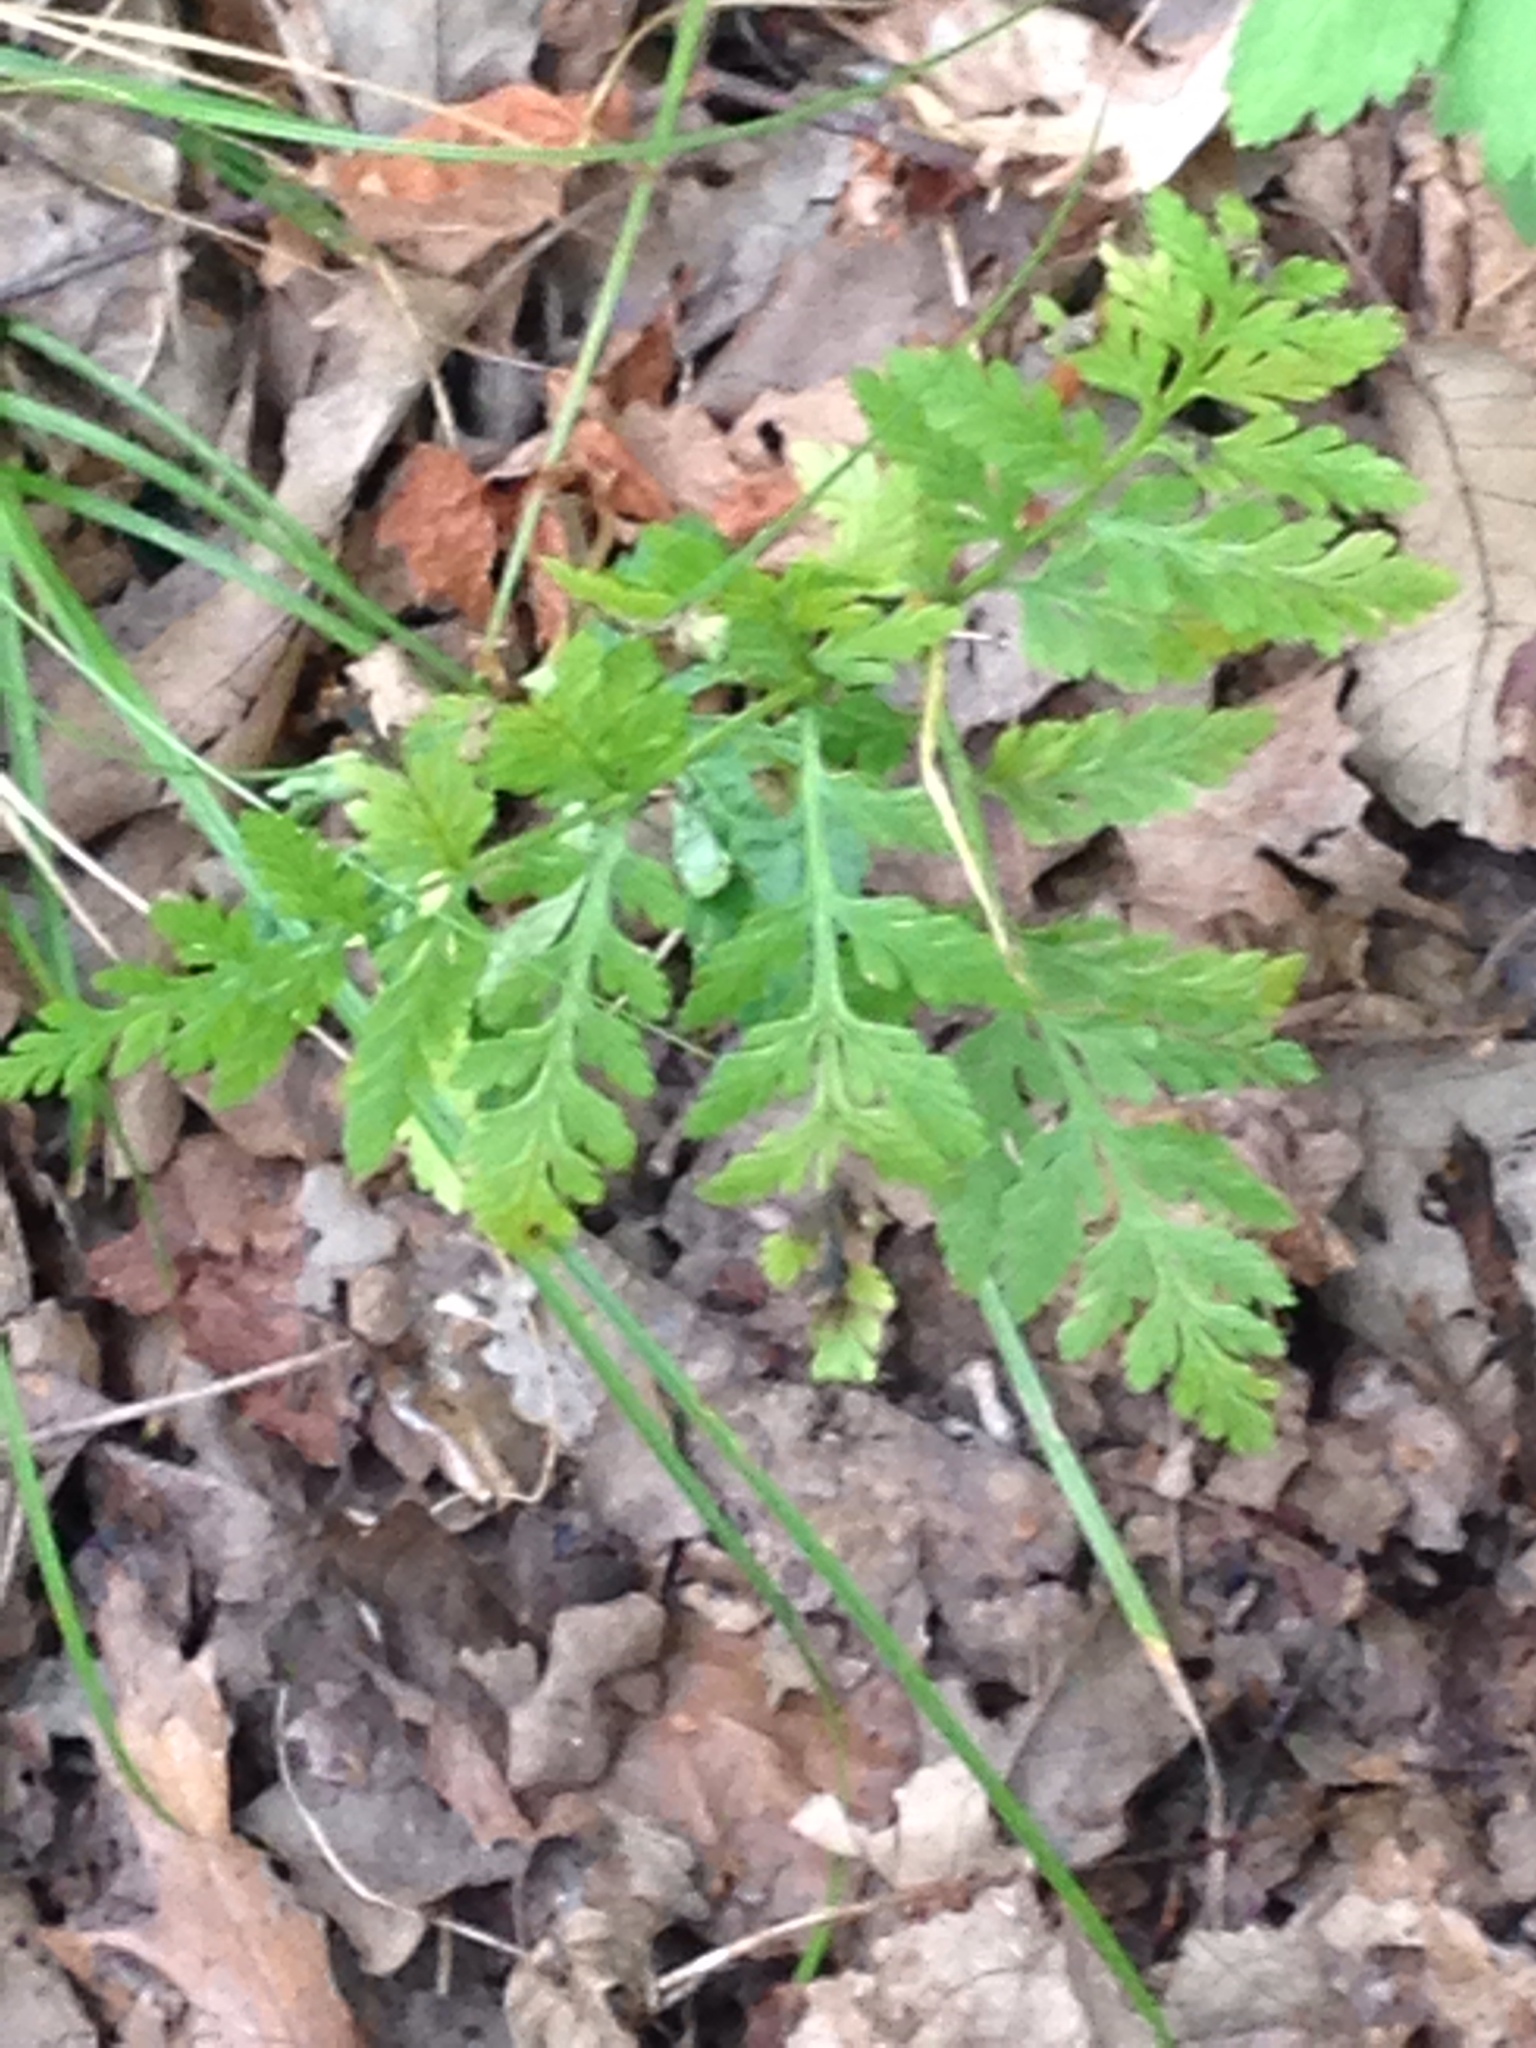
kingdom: Plantae
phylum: Tracheophyta
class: Polypodiopsida
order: Ophioglossales
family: Ophioglossaceae
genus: Botrypus
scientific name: Botrypus virginianus
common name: Common grapefern
